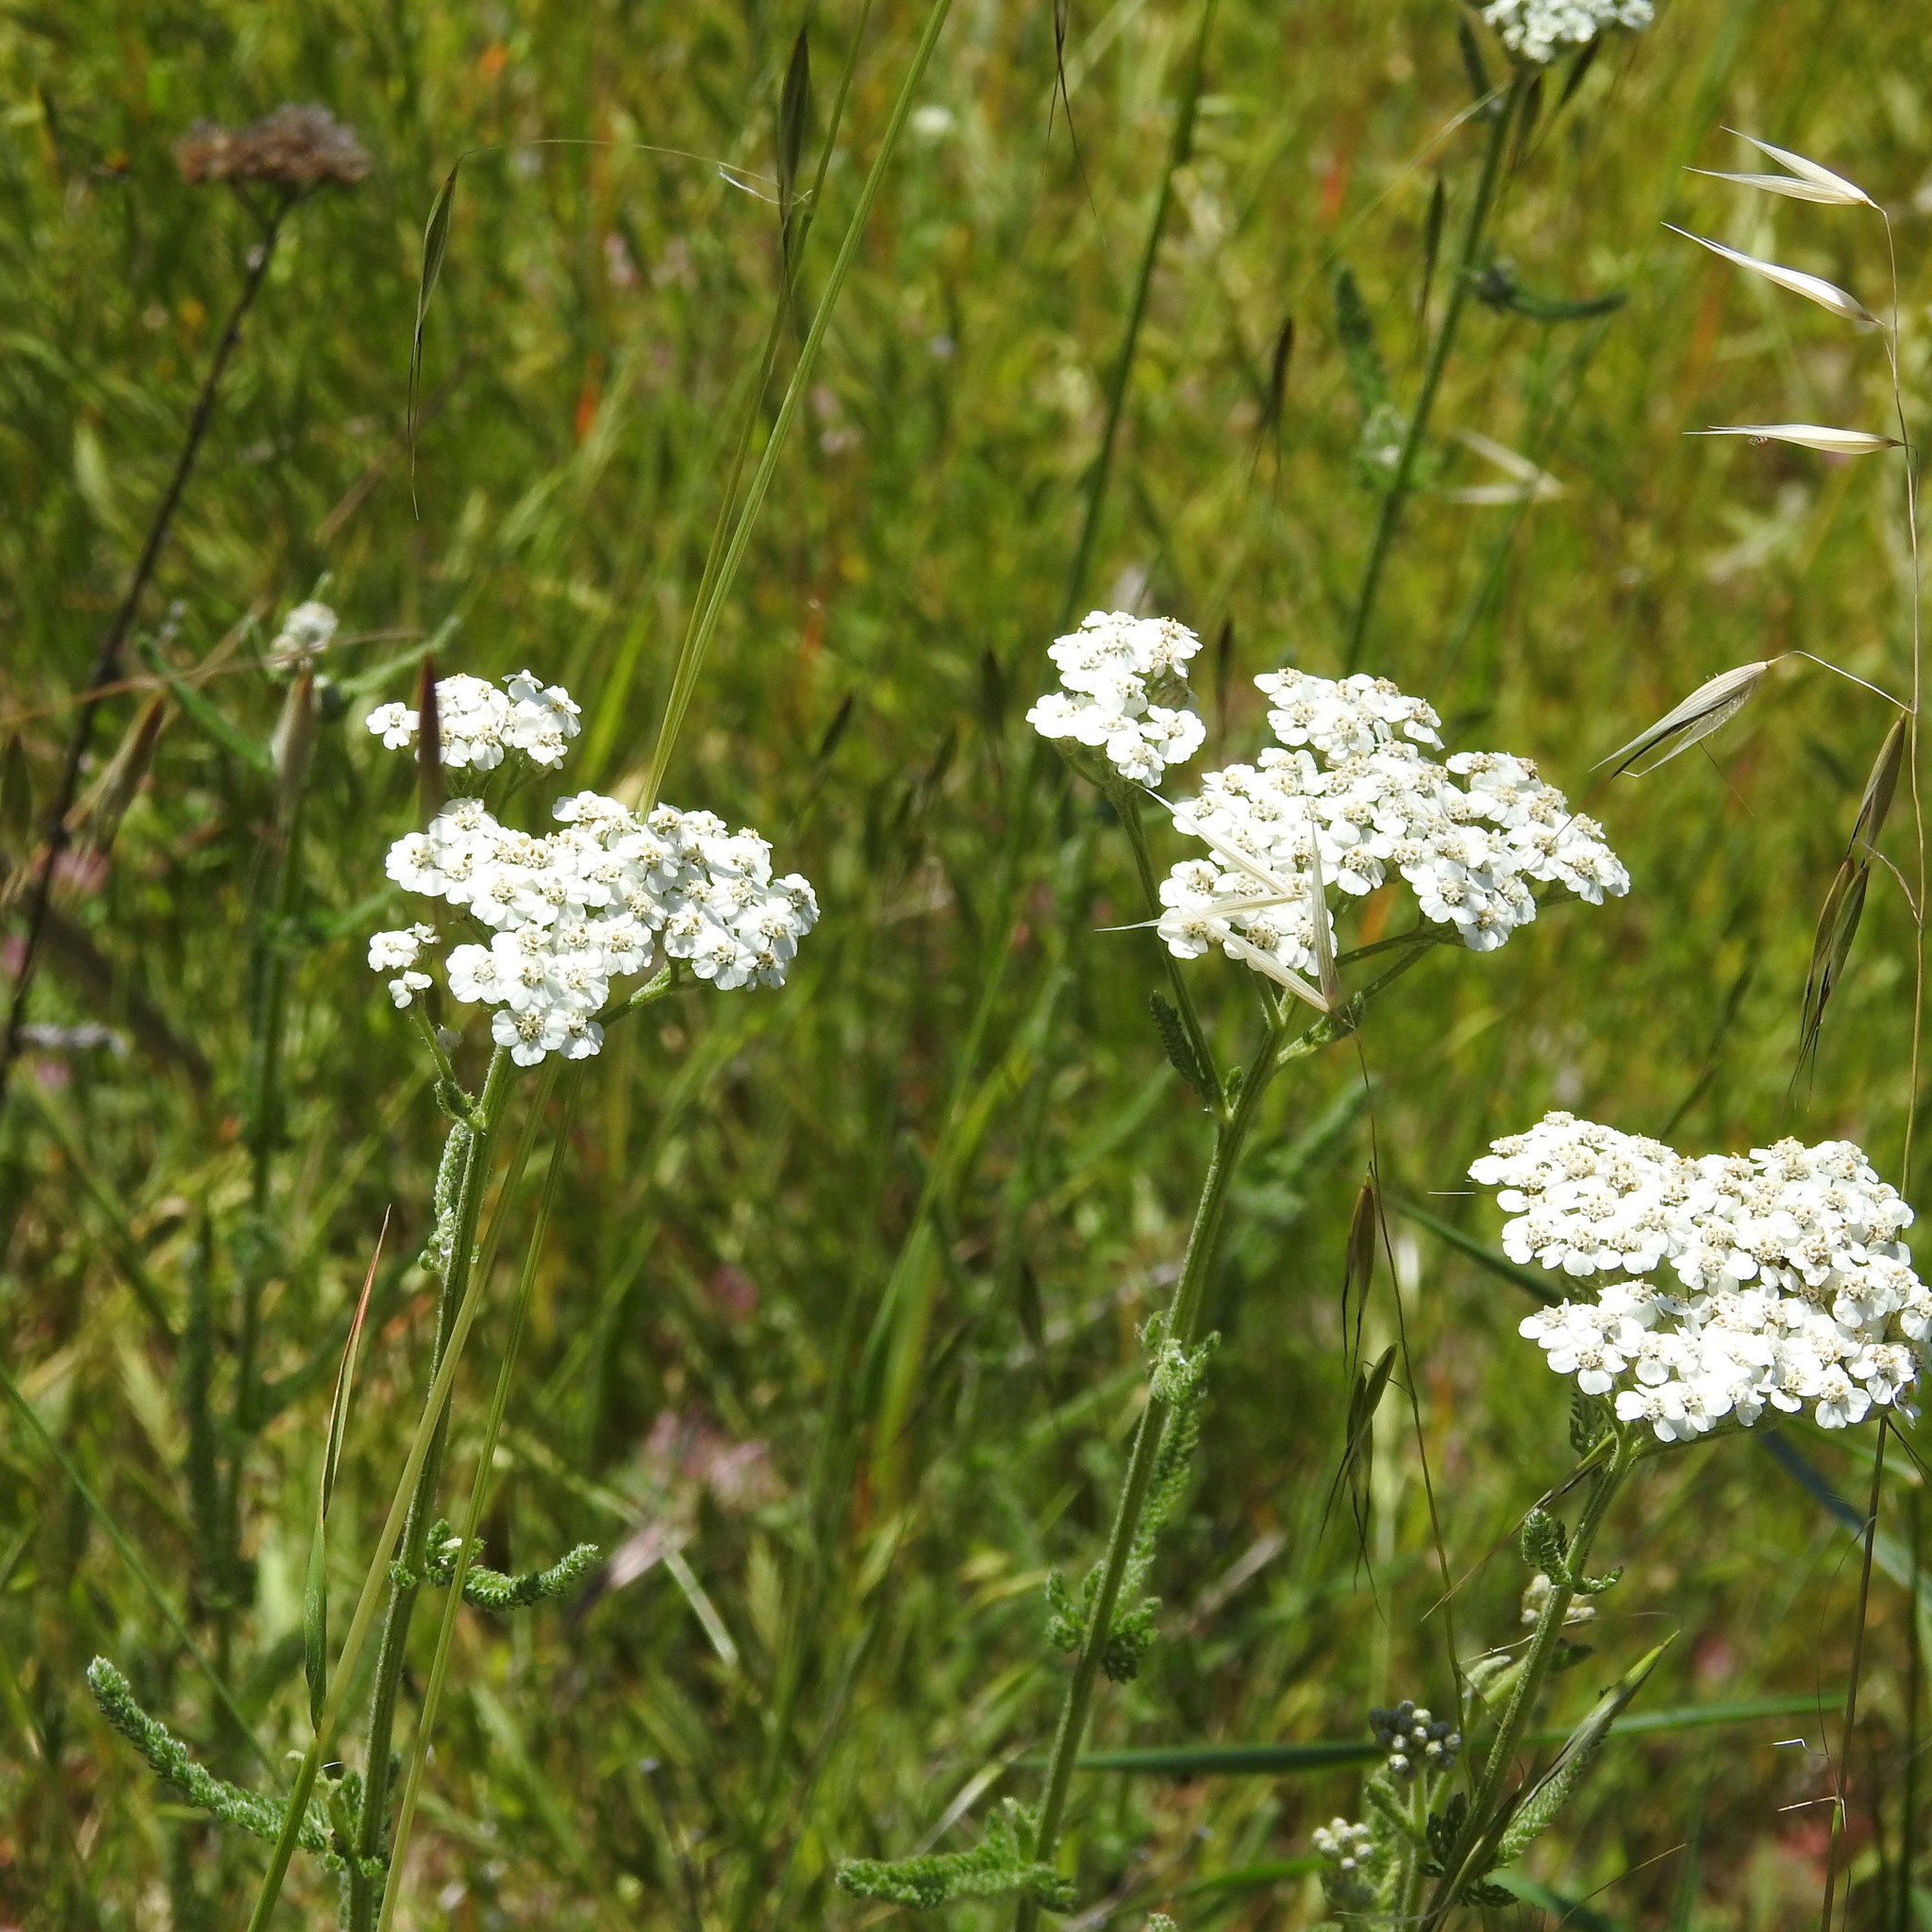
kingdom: Plantae
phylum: Tracheophyta
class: Magnoliopsida
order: Asterales
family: Asteraceae
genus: Achillea
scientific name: Achillea millefolium
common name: Yarrow
